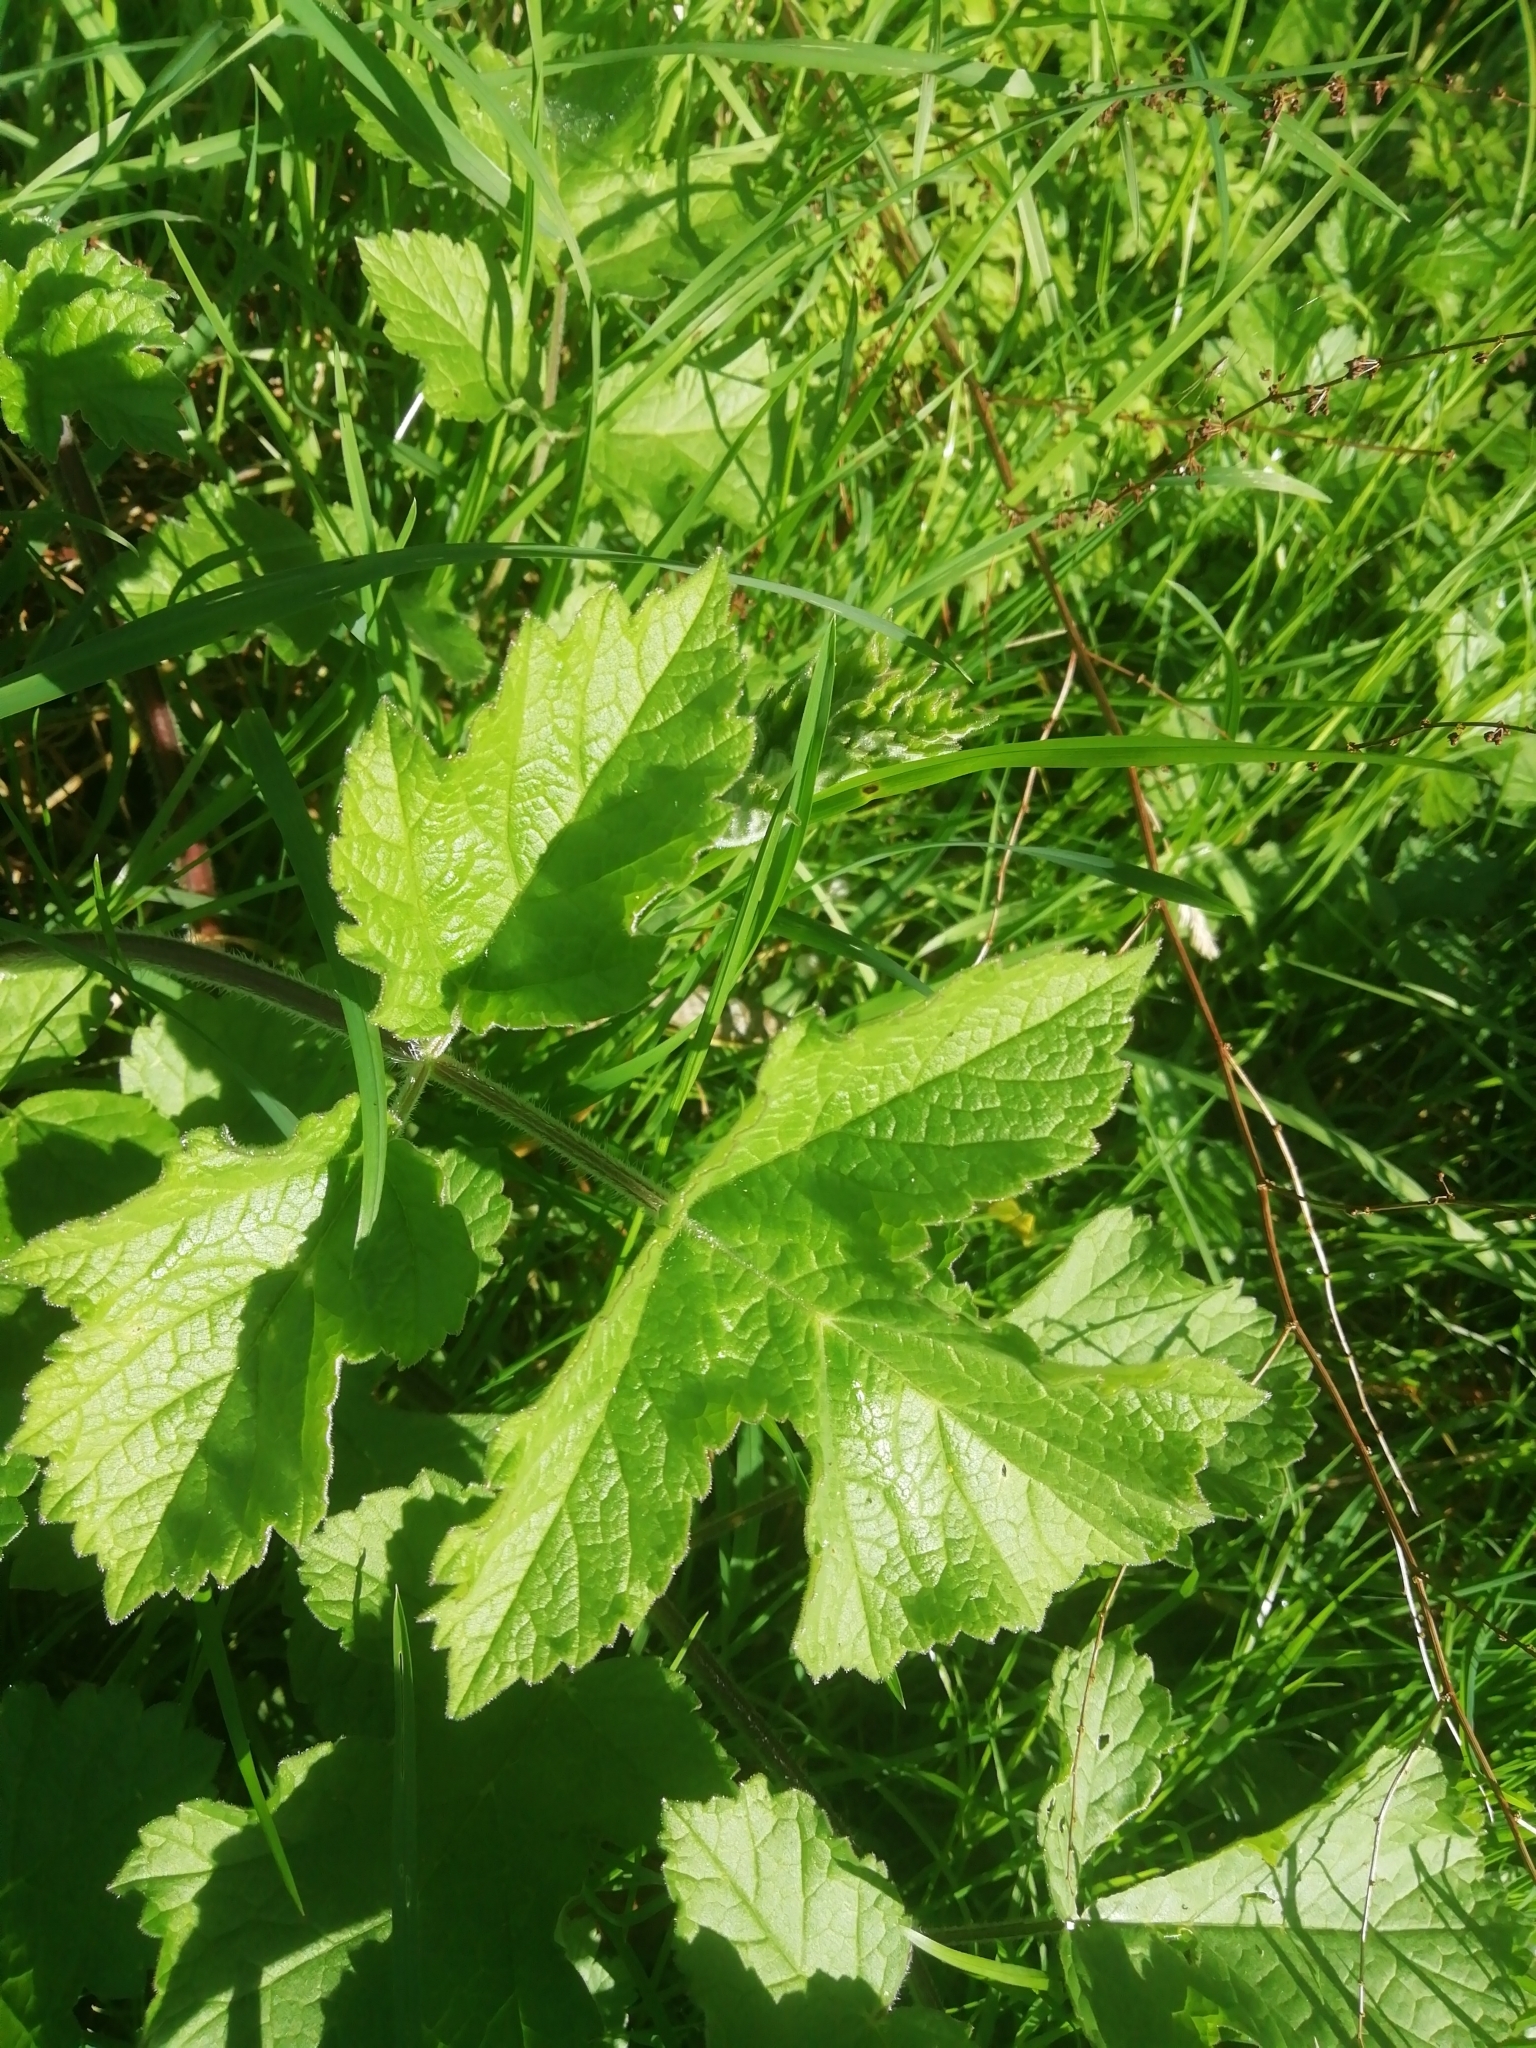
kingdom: Plantae
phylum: Tracheophyta
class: Magnoliopsida
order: Apiales
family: Apiaceae
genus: Heracleum
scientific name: Heracleum sphondylium
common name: Hogweed
